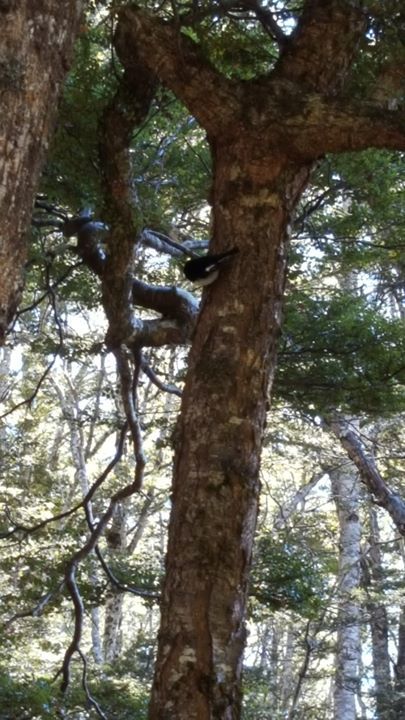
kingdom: Animalia
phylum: Chordata
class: Aves
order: Passeriformes
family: Petroicidae
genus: Petroica
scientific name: Petroica macrocephala
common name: Tomtit
